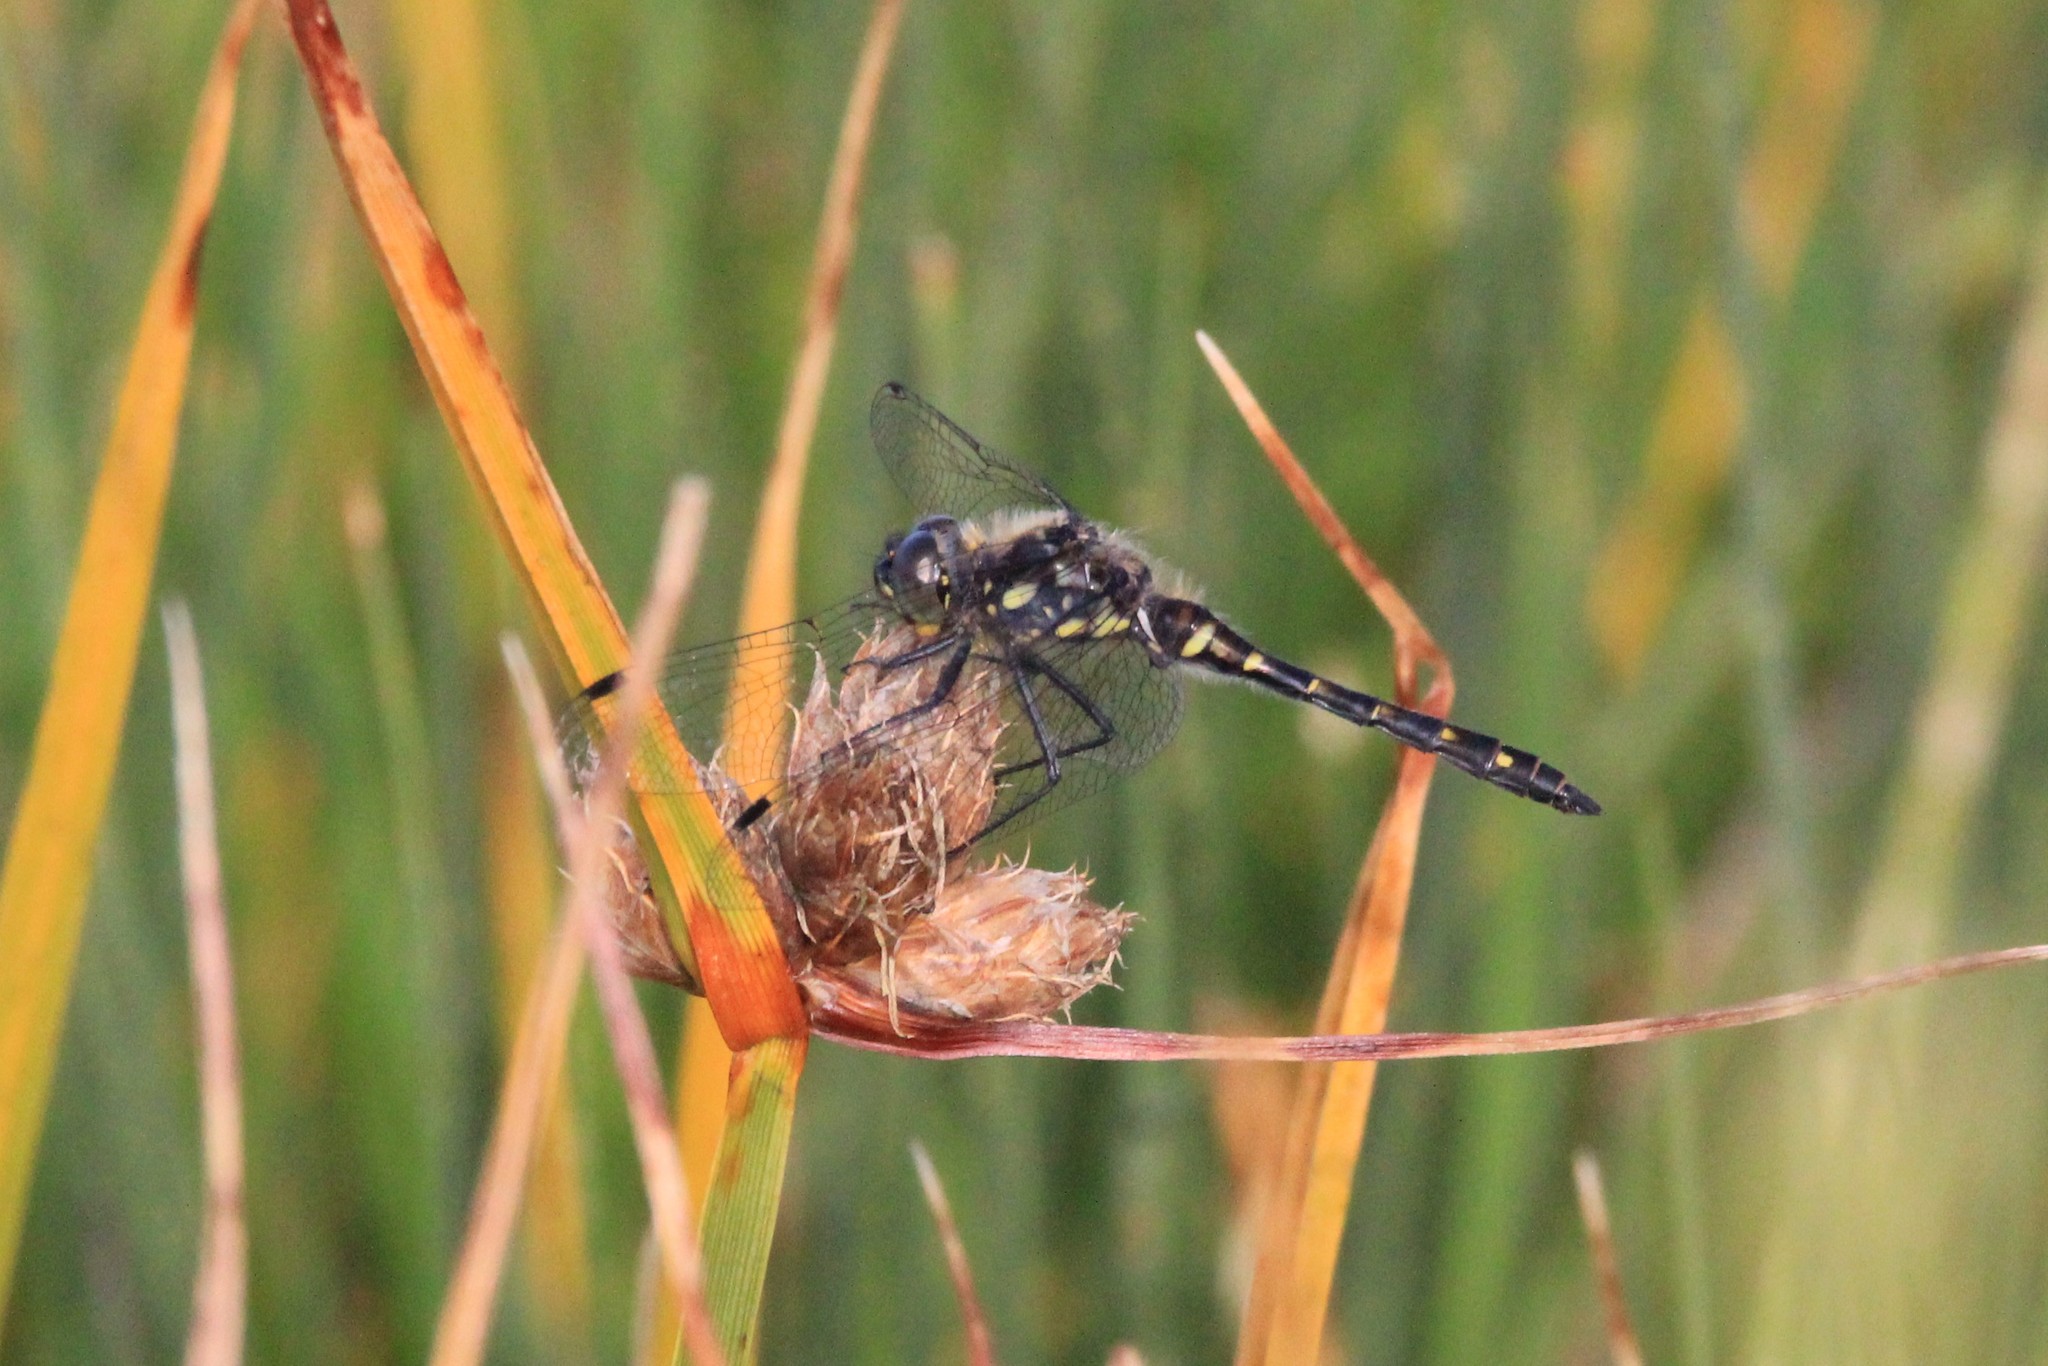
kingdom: Animalia
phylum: Arthropoda
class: Insecta
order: Odonata
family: Libellulidae
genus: Sympetrum
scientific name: Sympetrum danae
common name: Black darter
